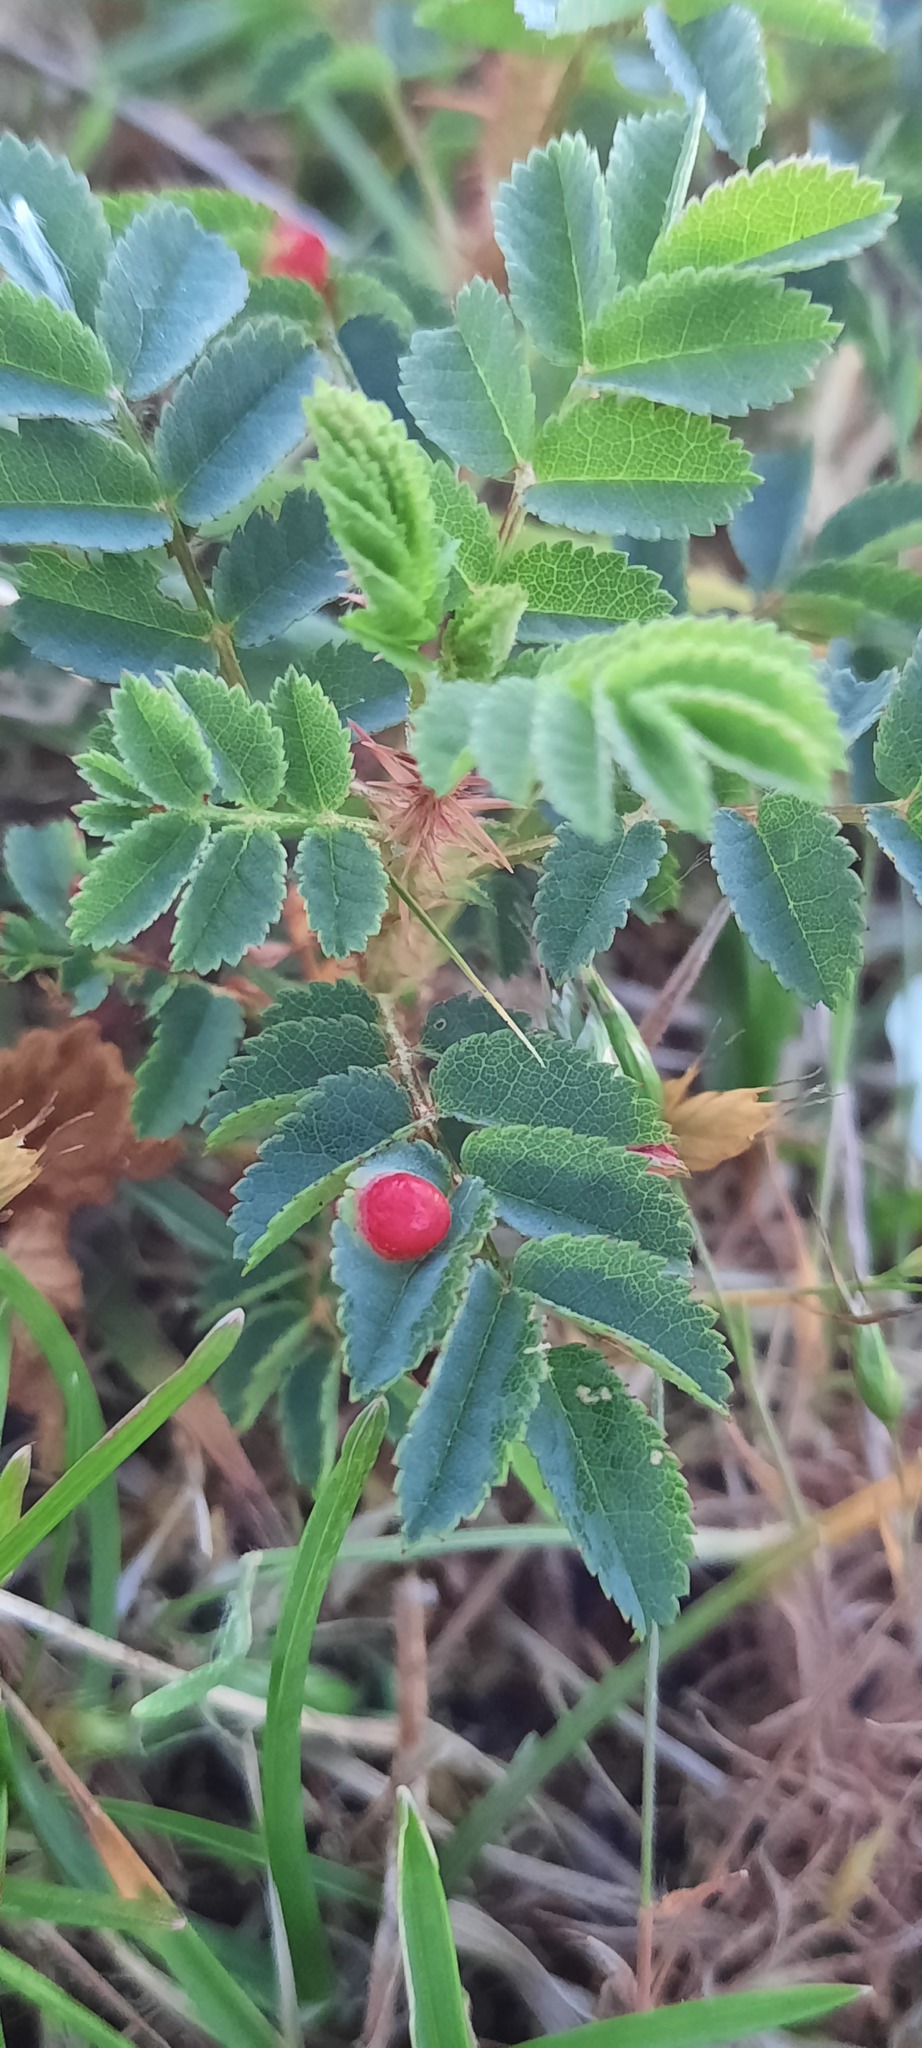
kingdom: Plantae
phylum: Tracheophyta
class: Magnoliopsida
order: Rosales
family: Rosaceae
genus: Rosa
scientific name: Rosa spinosissima
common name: Burnet rose
